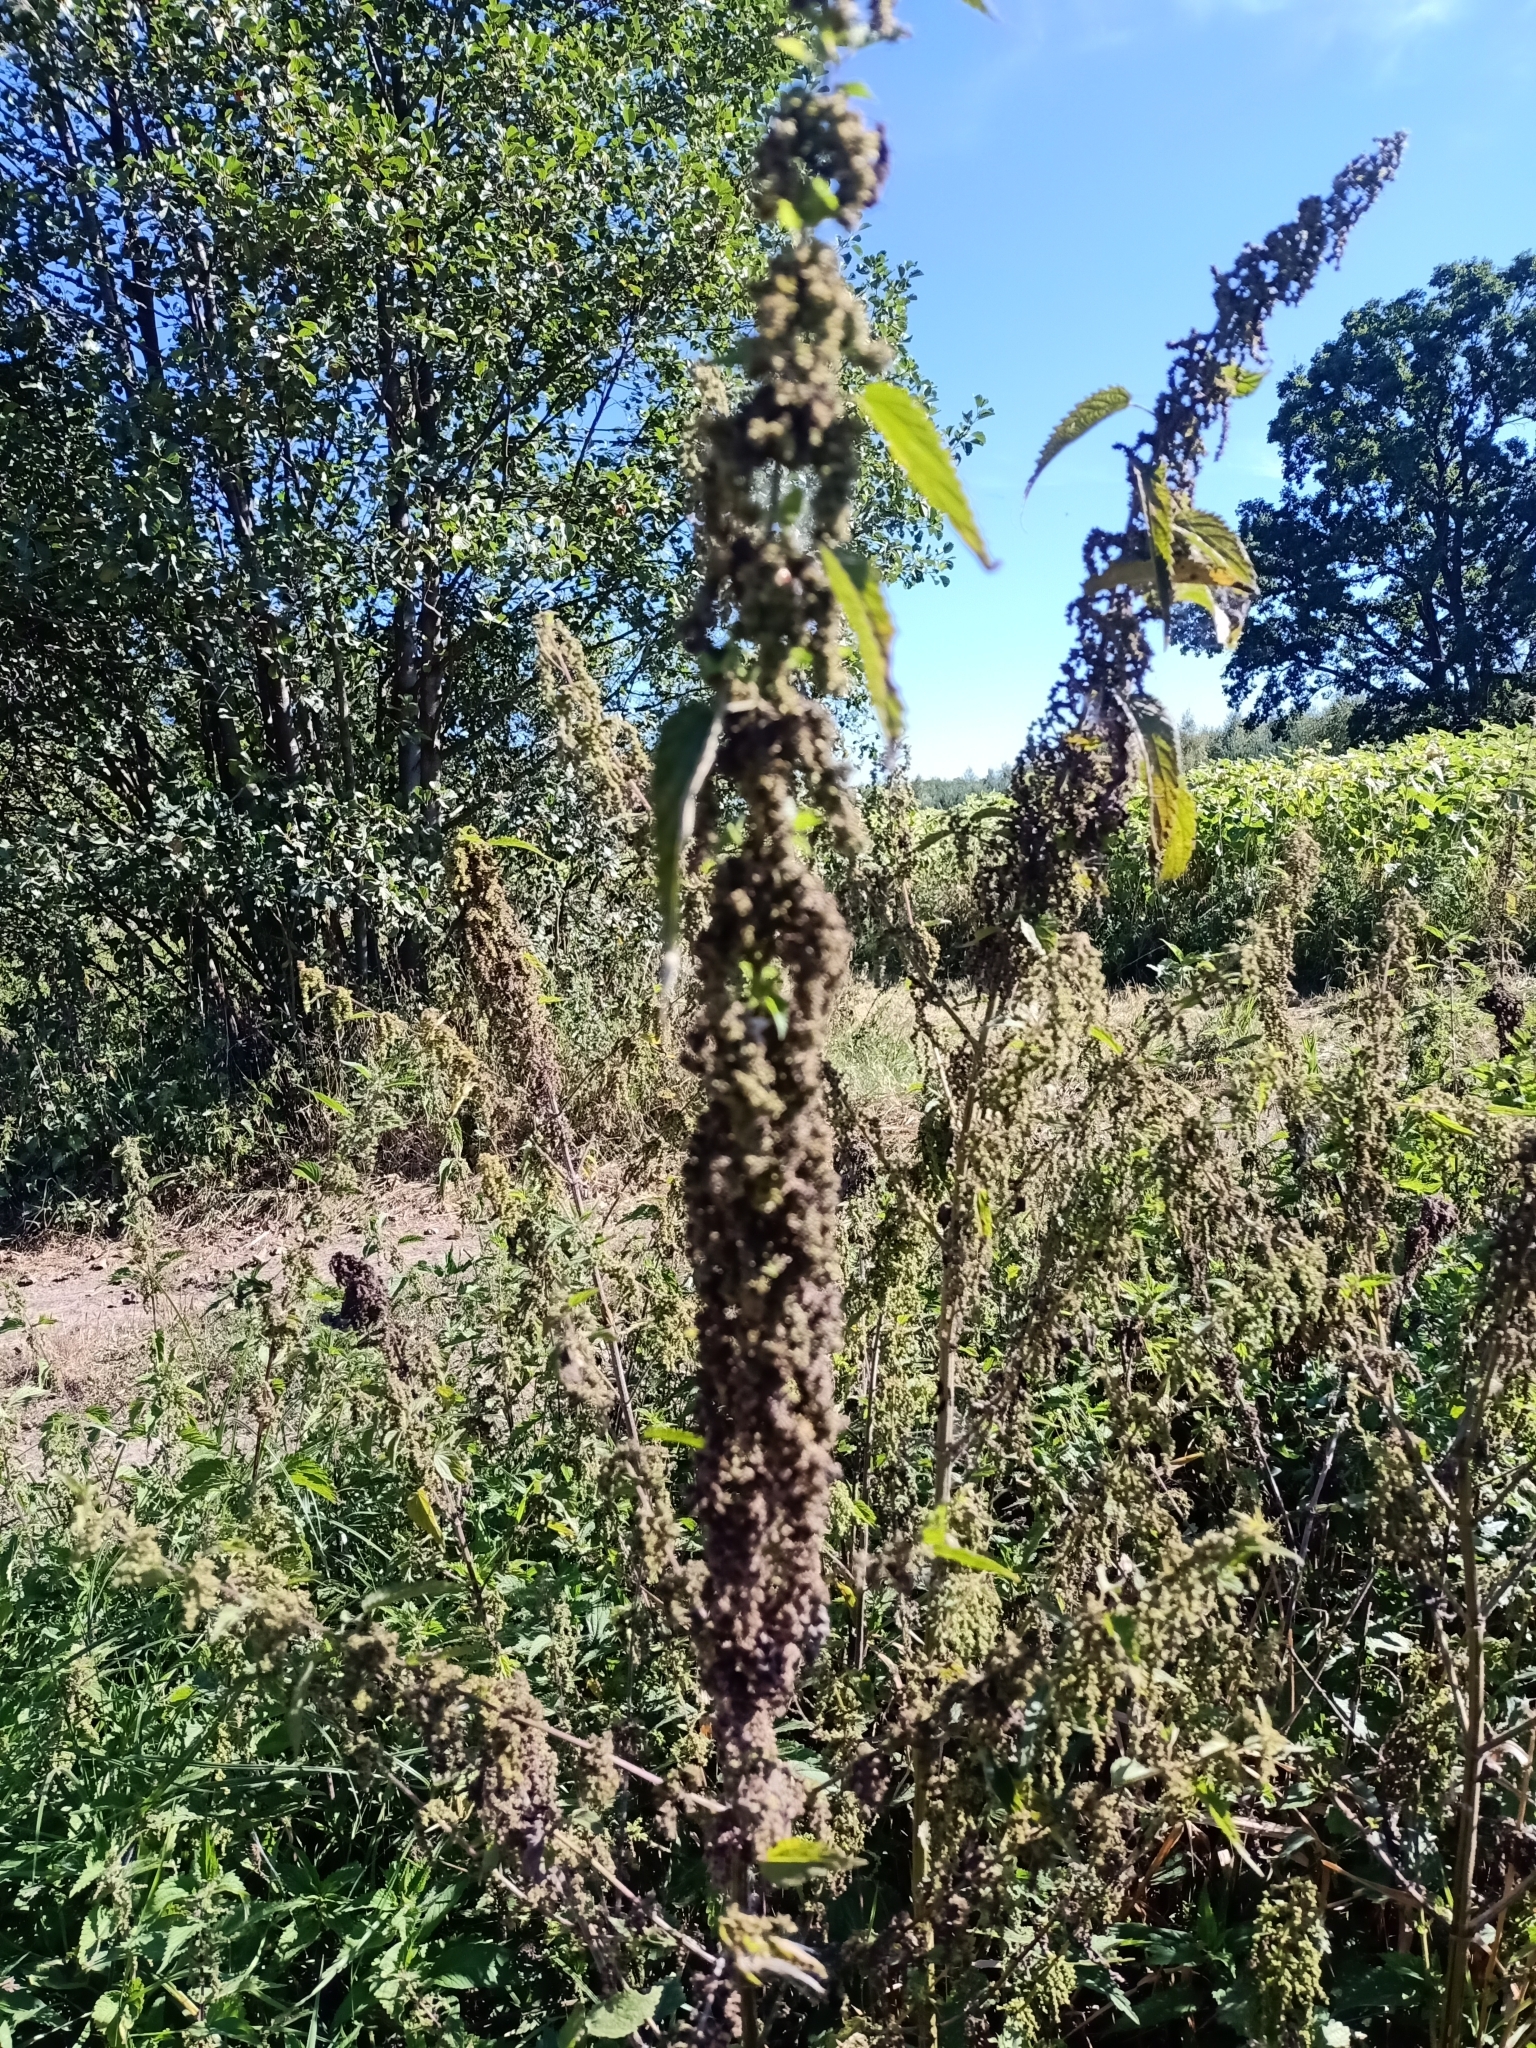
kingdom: Plantae
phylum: Tracheophyta
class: Magnoliopsida
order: Rosales
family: Urticaceae
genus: Urtica
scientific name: Urtica dioica
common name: Common nettle
